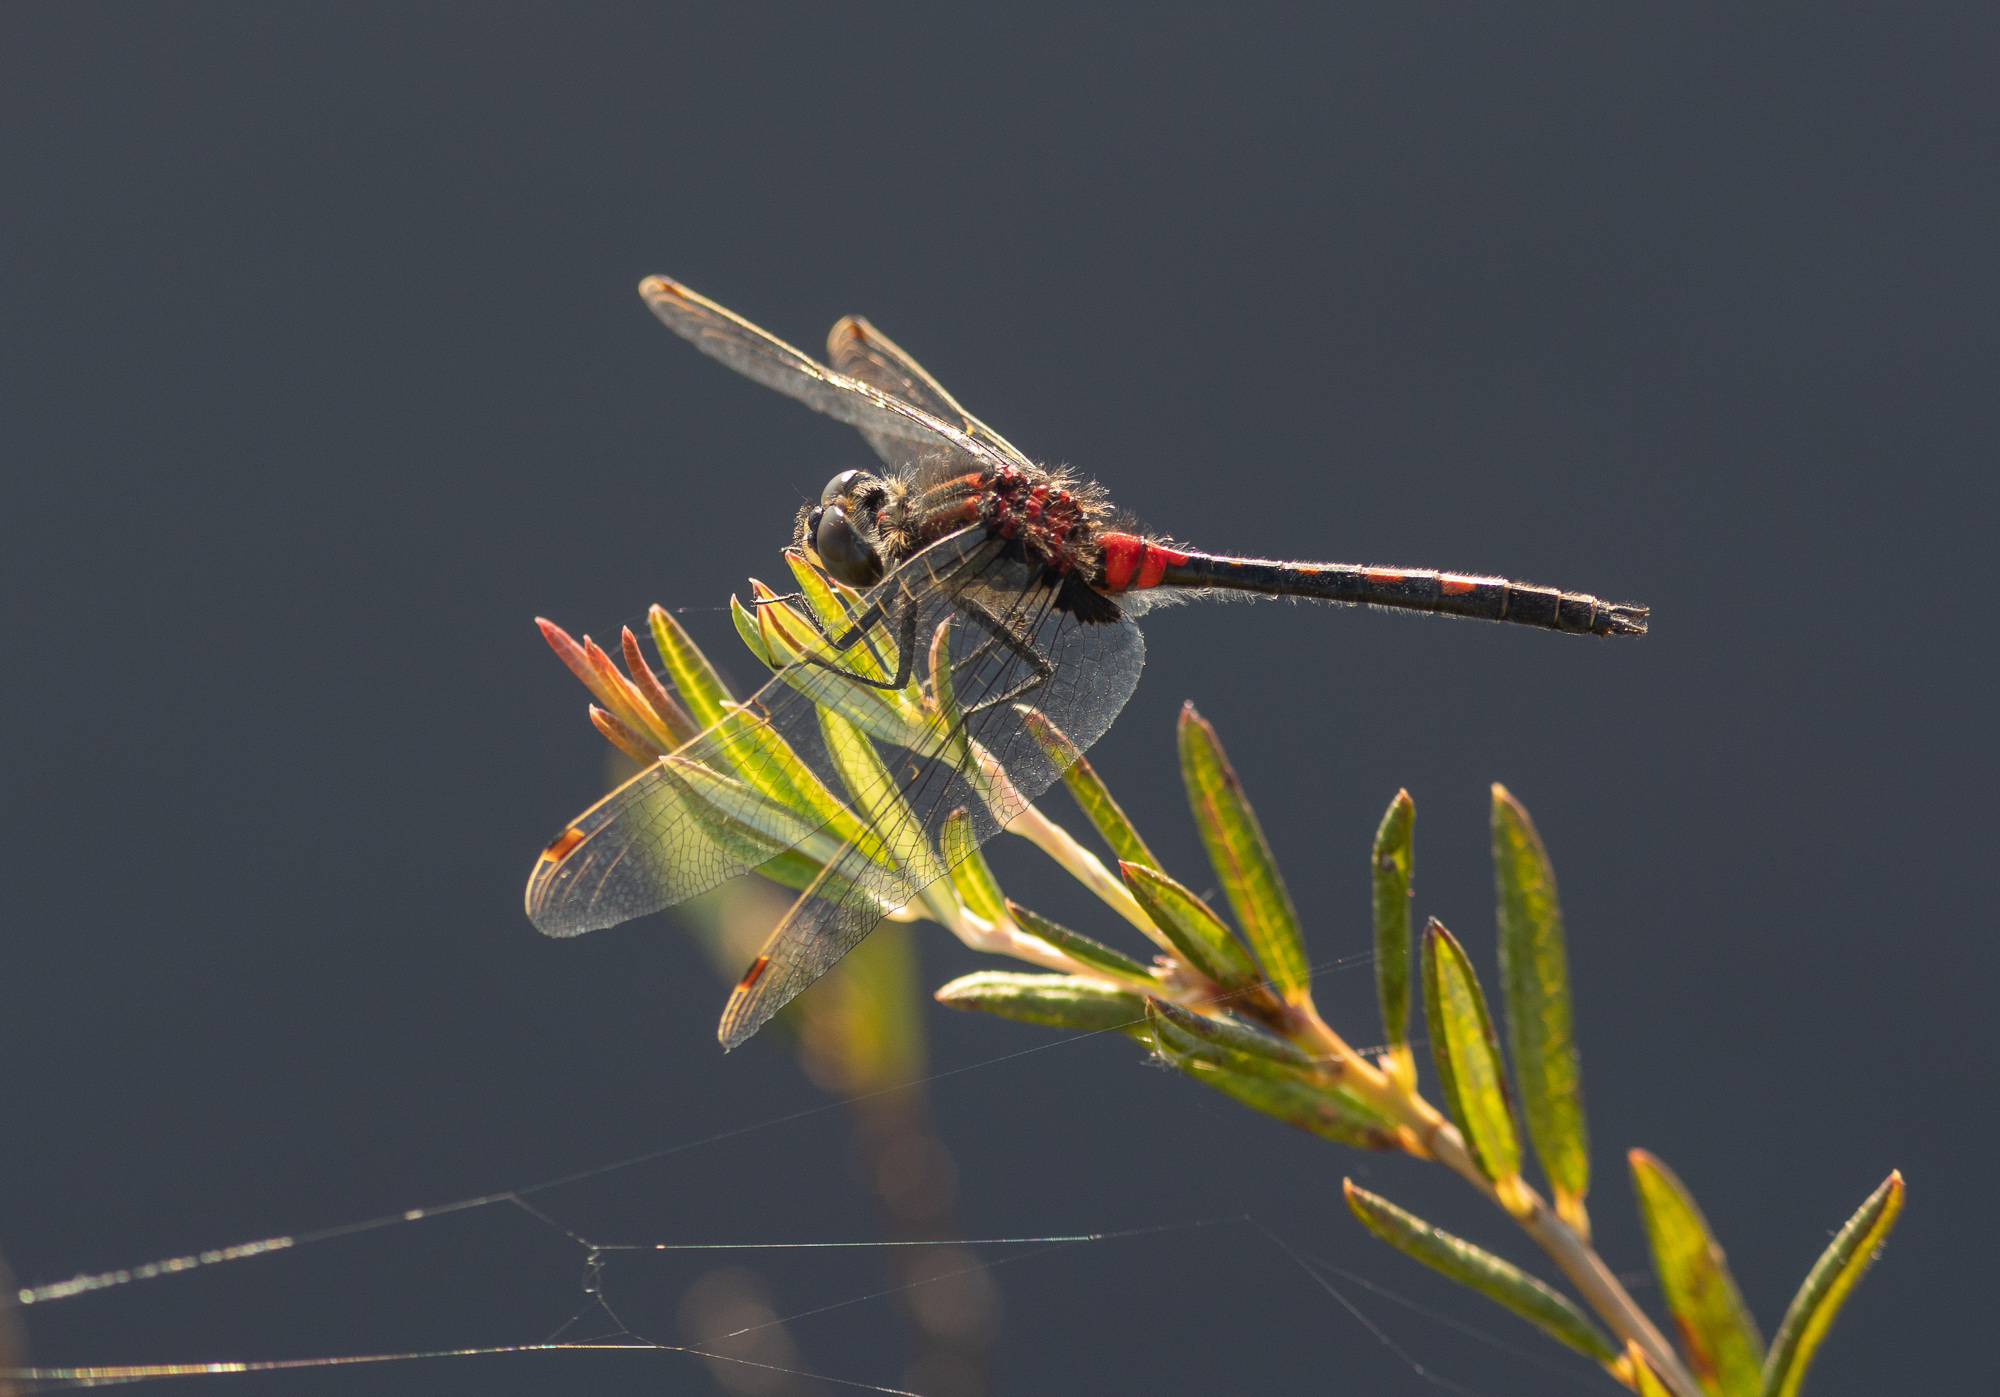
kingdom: Animalia
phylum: Arthropoda
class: Insecta
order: Odonata
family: Libellulidae
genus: Leucorrhinia
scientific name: Leucorrhinia dubia
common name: White-faced darter
